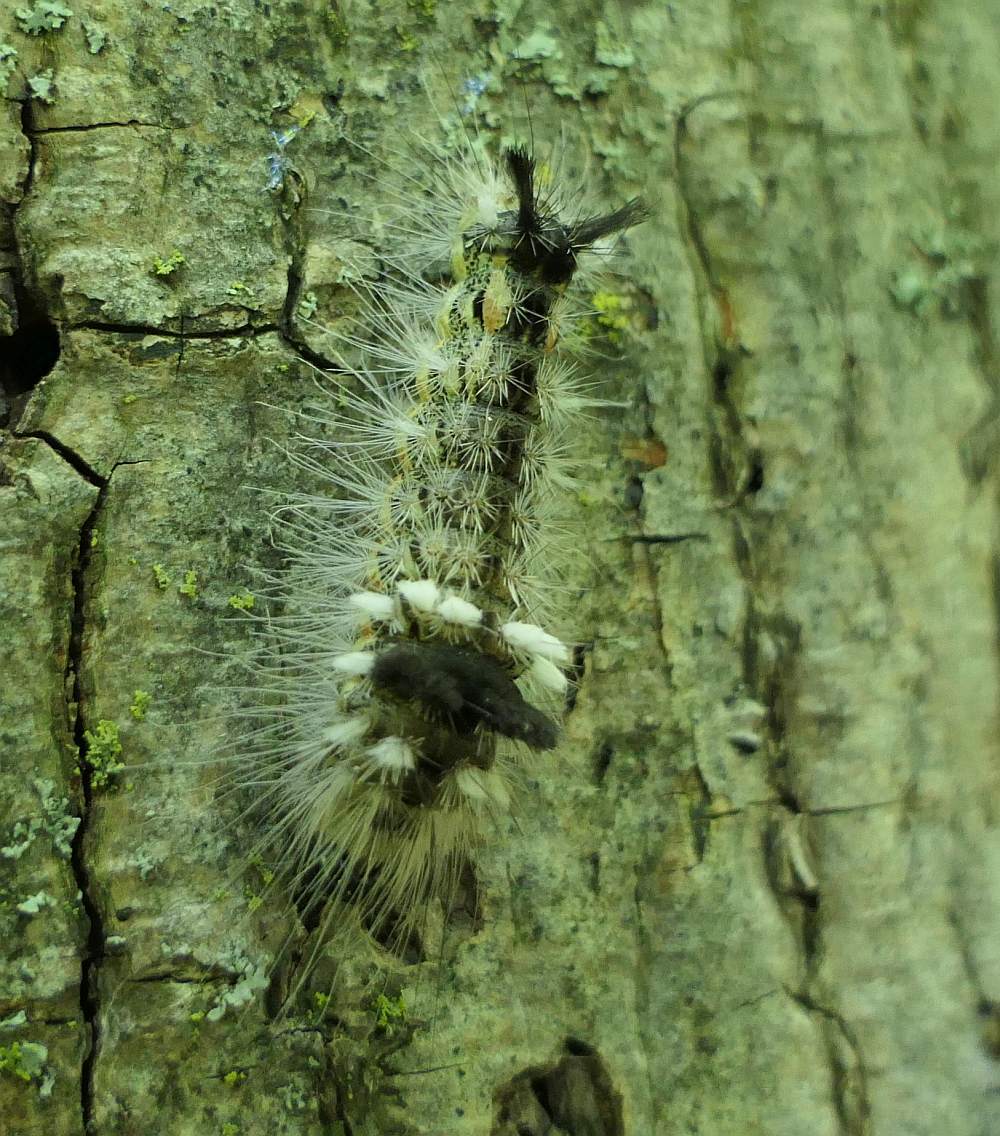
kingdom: Animalia
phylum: Arthropoda
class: Insecta
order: Lepidoptera
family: Noctuidae
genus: Acronicta
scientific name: Acronicta impleta
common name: Powdered dagger
